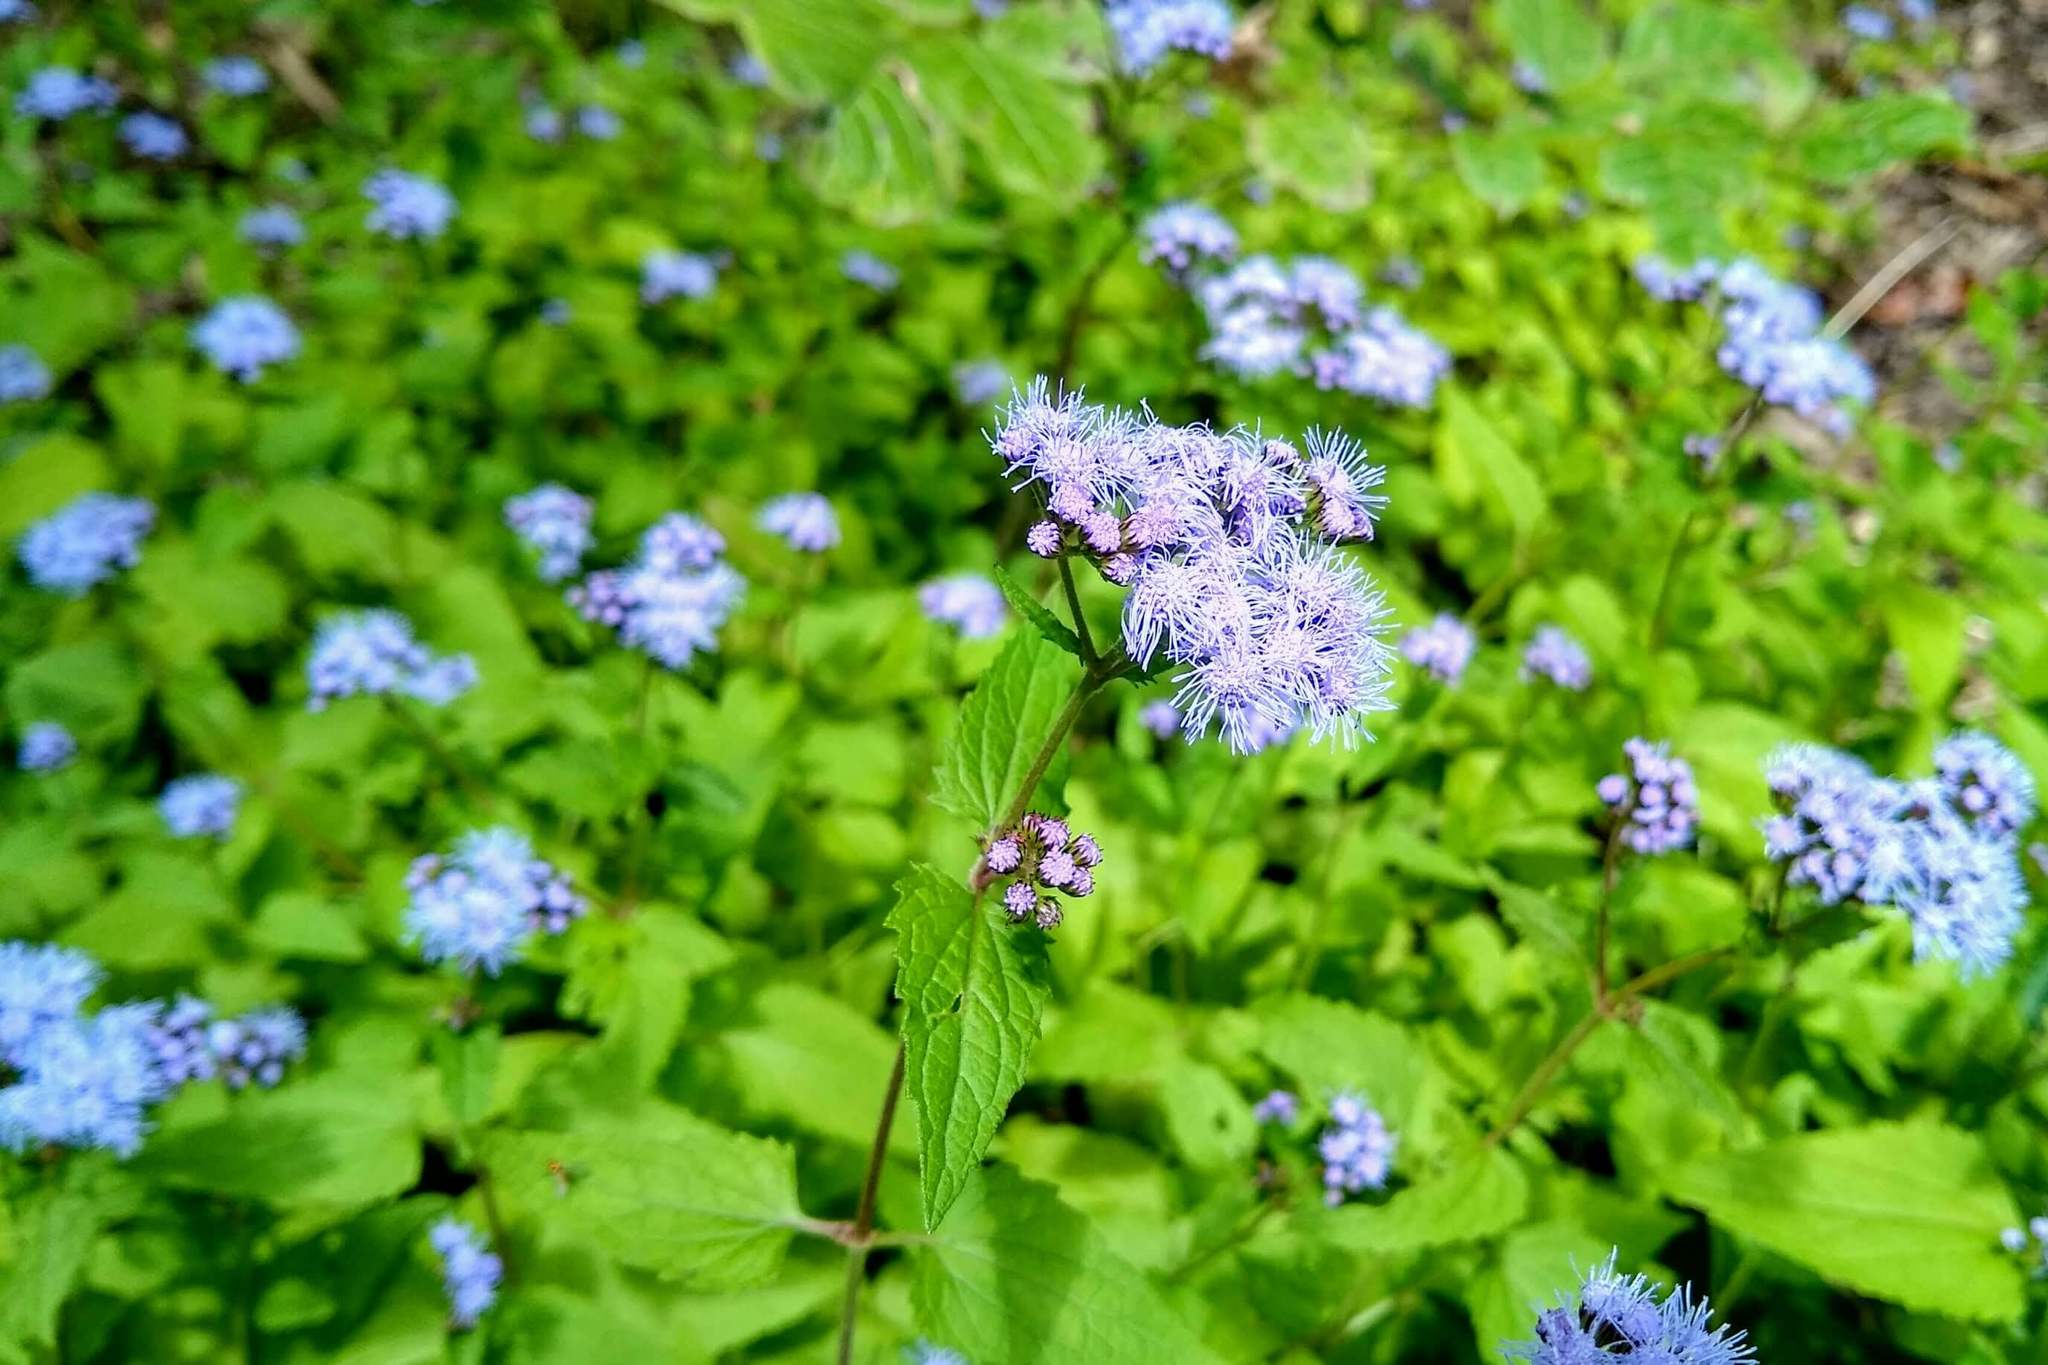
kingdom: Plantae
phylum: Tracheophyta
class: Magnoliopsida
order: Asterales
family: Asteraceae
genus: Conoclinium
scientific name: Conoclinium coelestinum
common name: Blue mistflower
